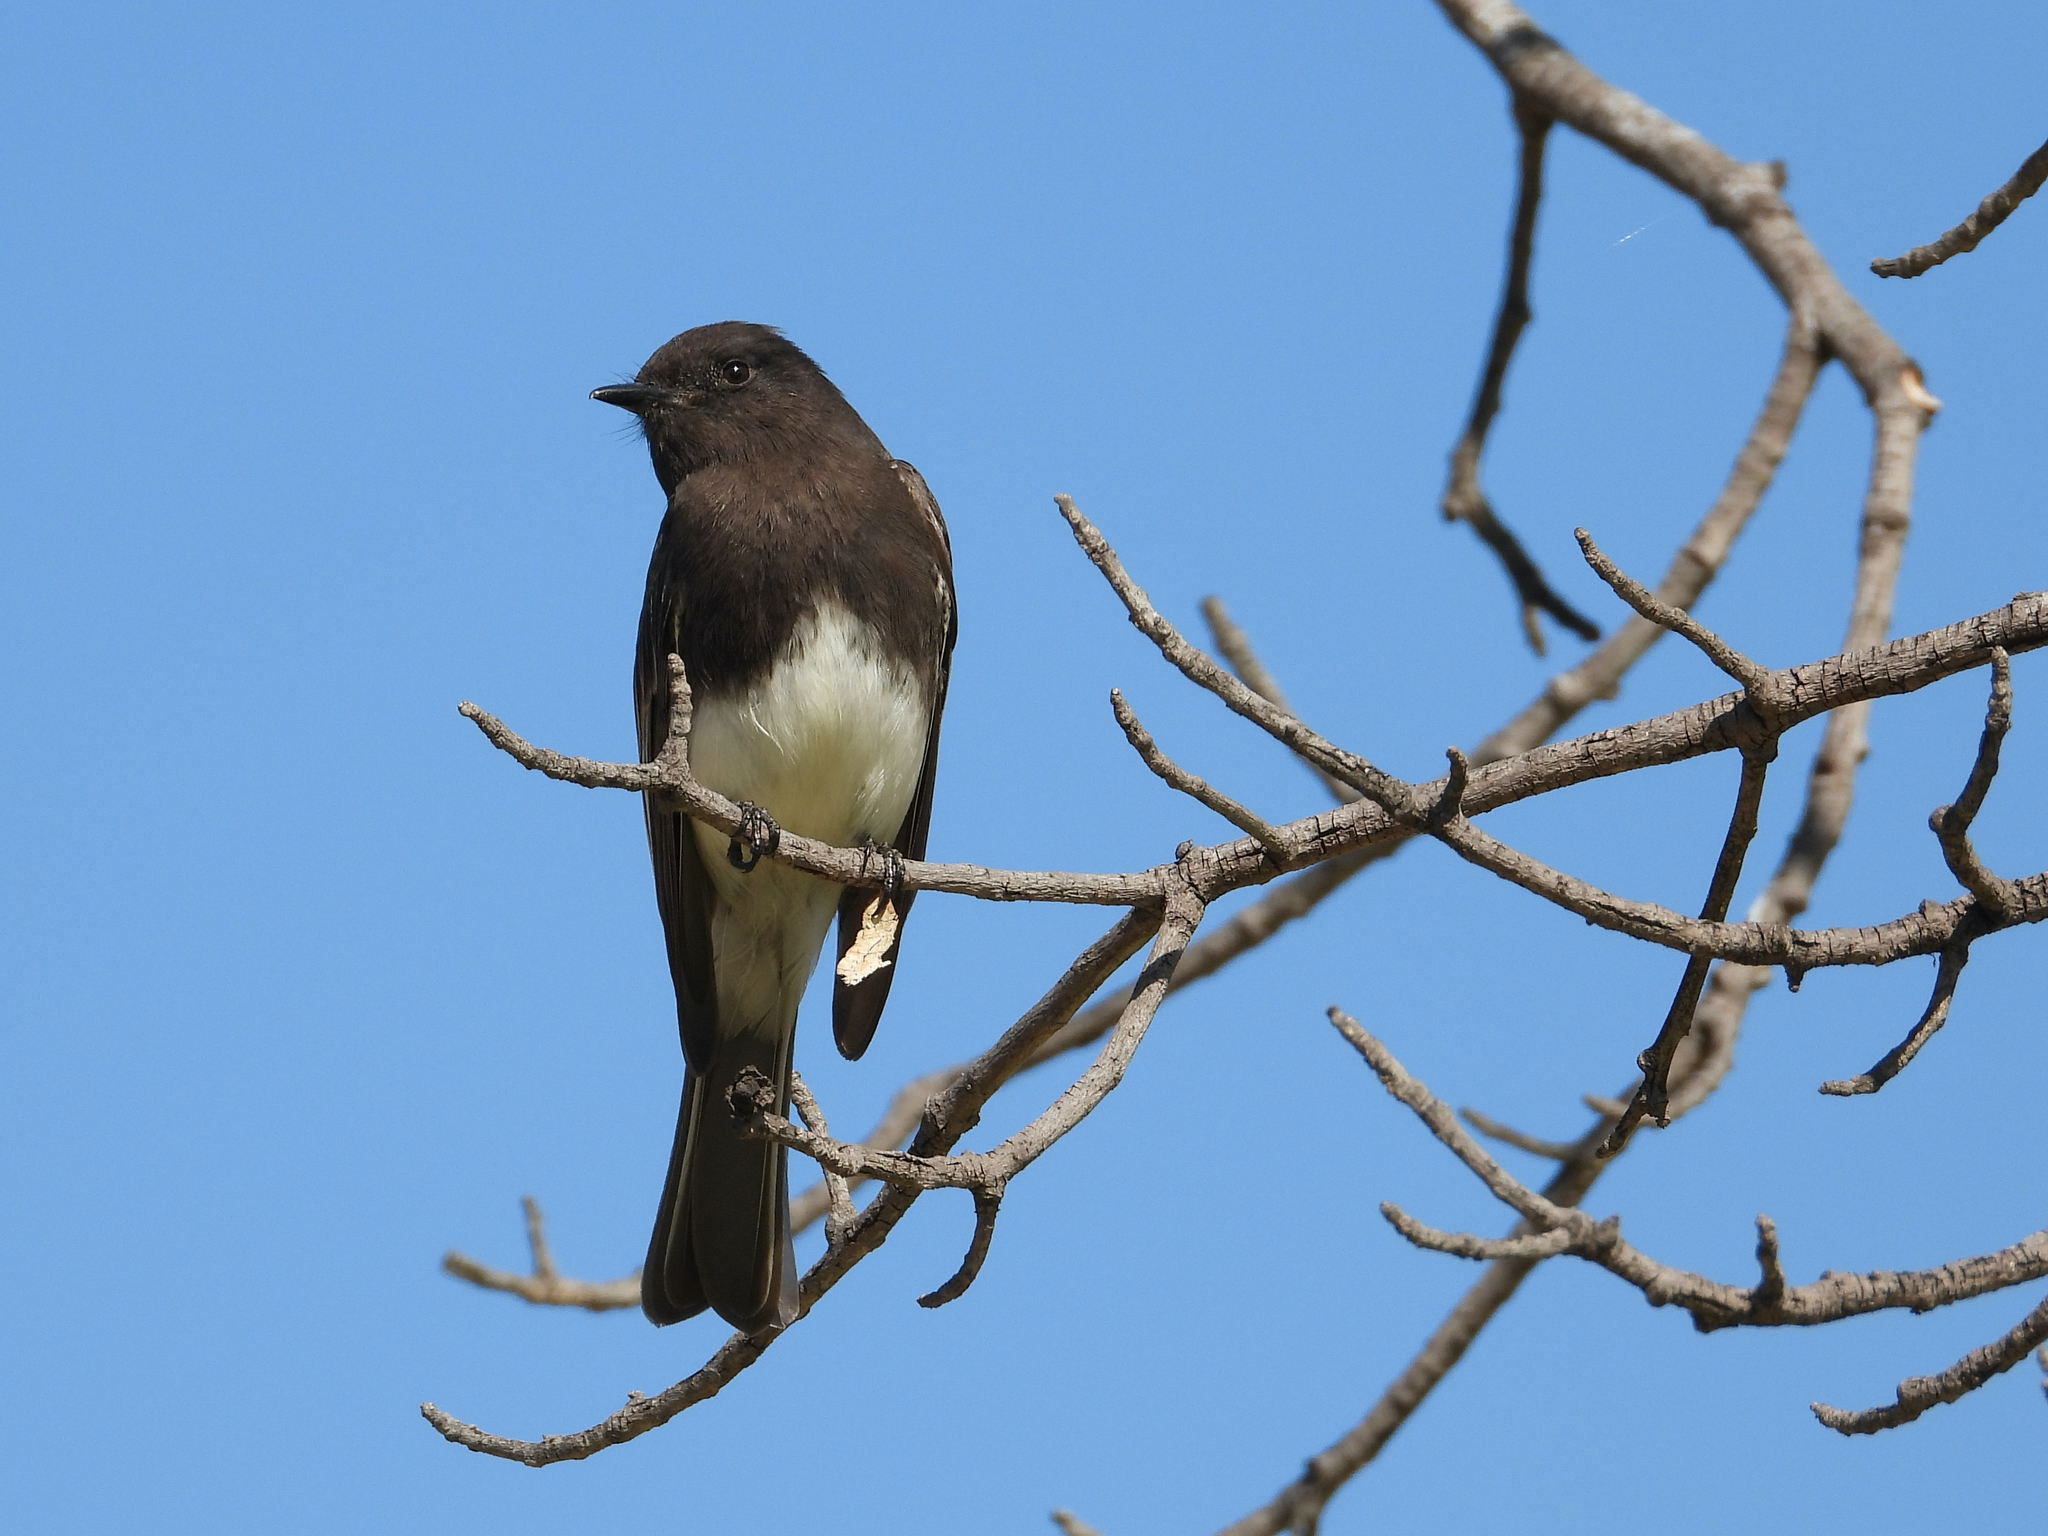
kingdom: Animalia
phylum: Chordata
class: Aves
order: Passeriformes
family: Tyrannidae
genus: Sayornis
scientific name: Sayornis nigricans
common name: Black phoebe
